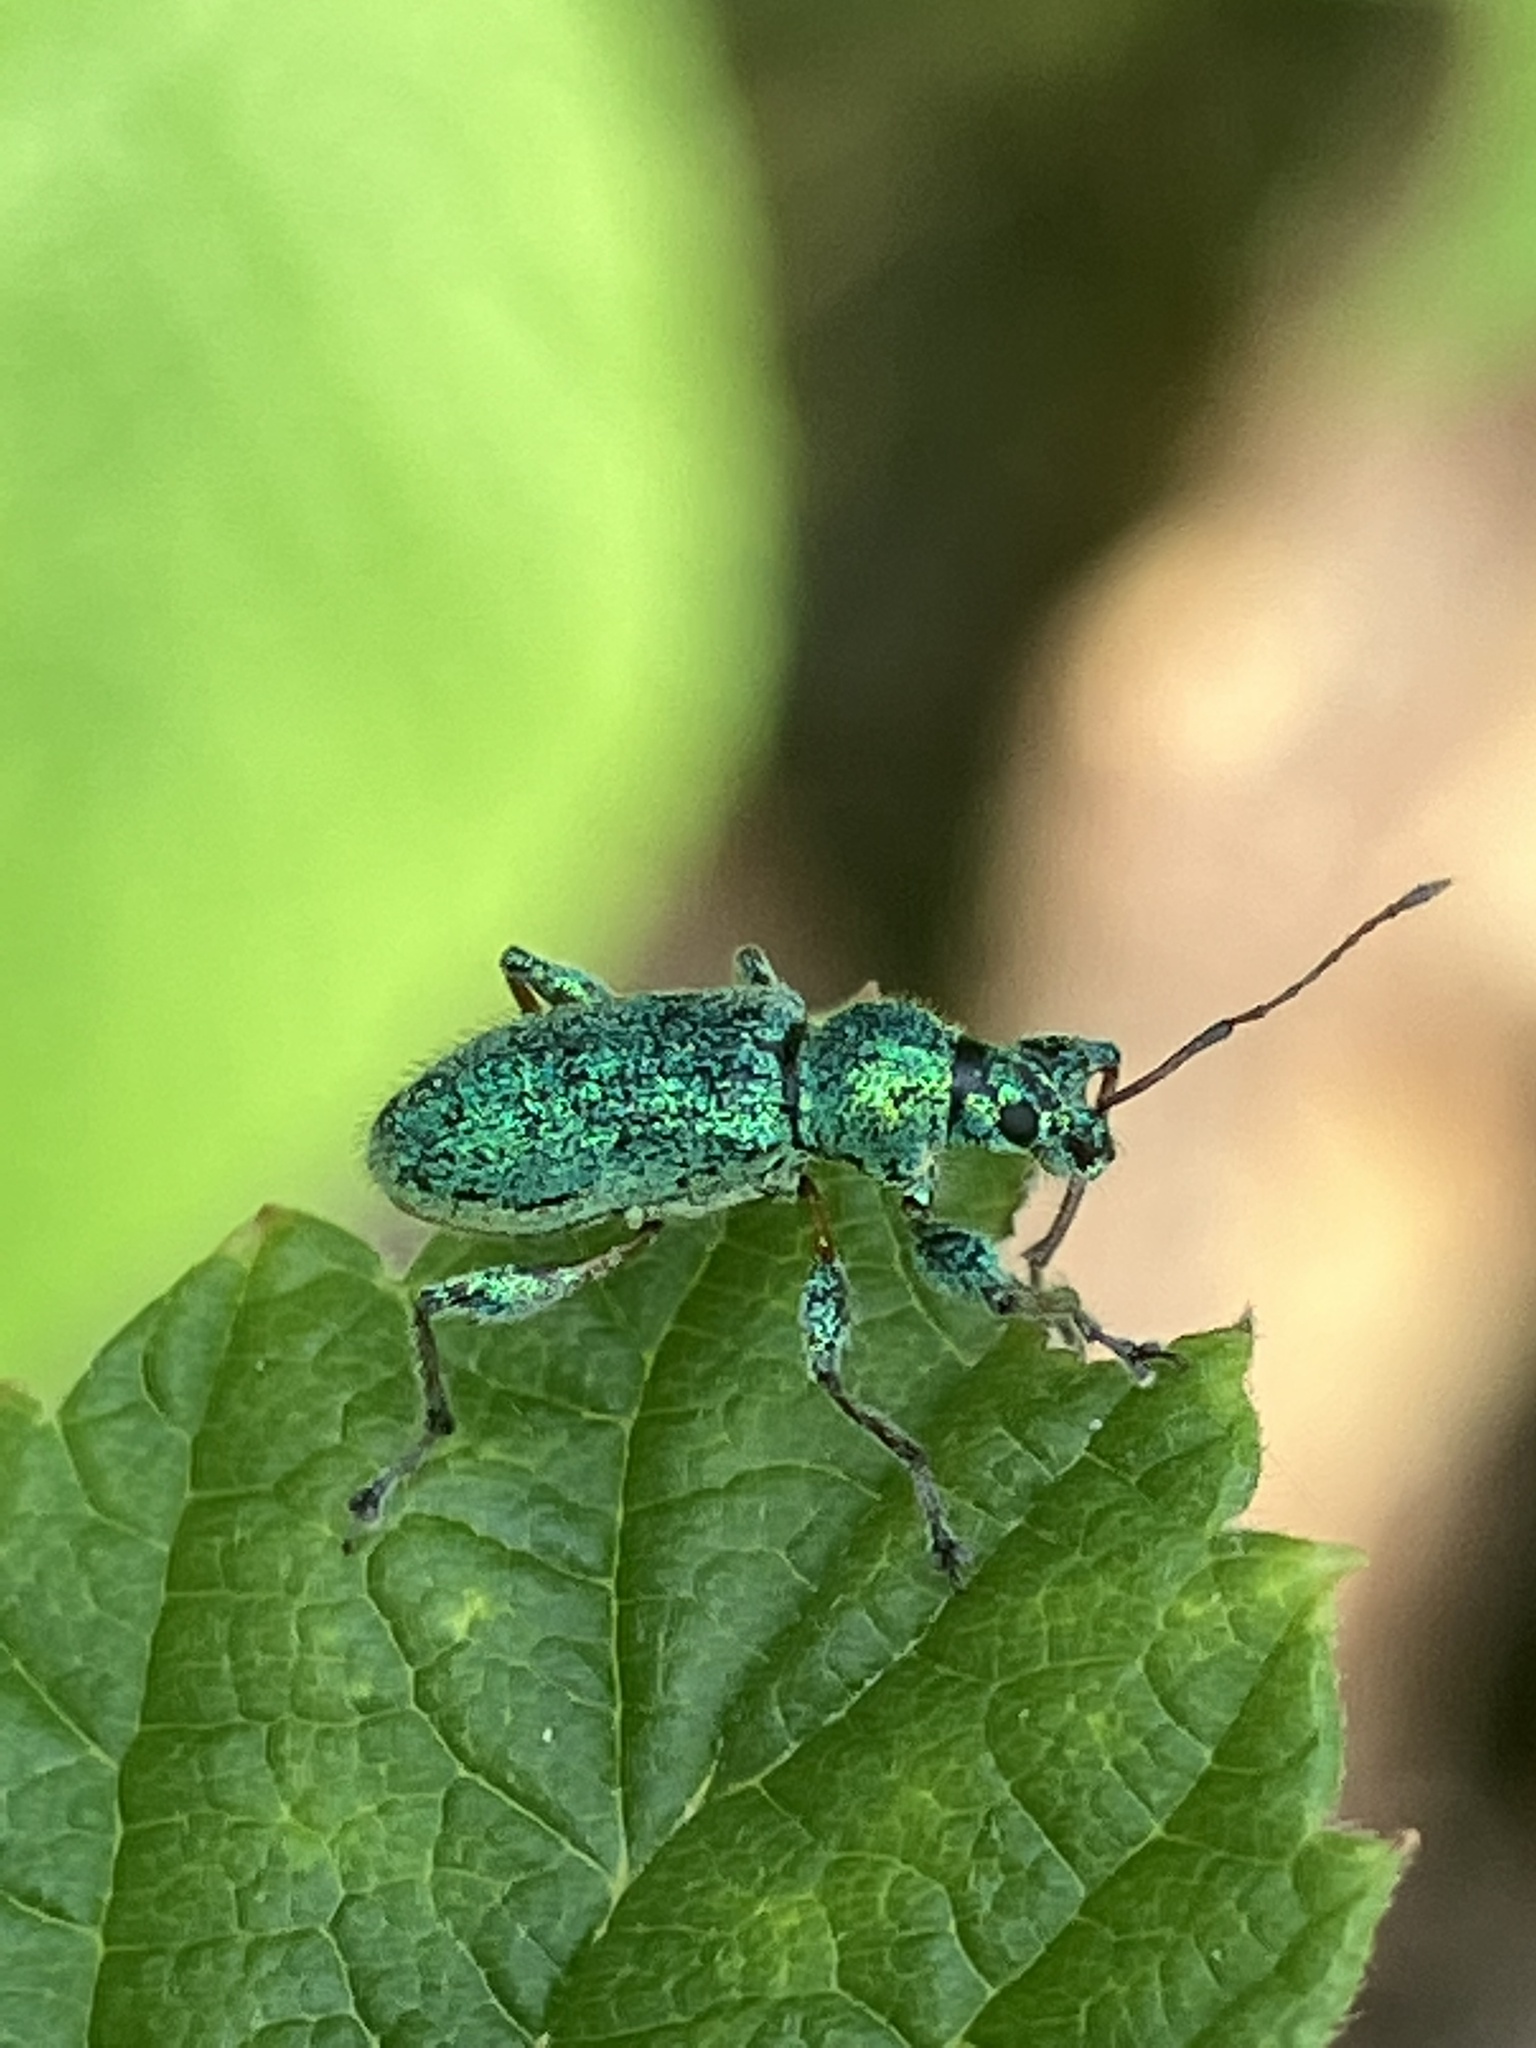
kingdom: Animalia
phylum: Arthropoda
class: Insecta
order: Coleoptera
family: Curculionidae
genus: Phyllobius
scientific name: Phyllobius arborator
